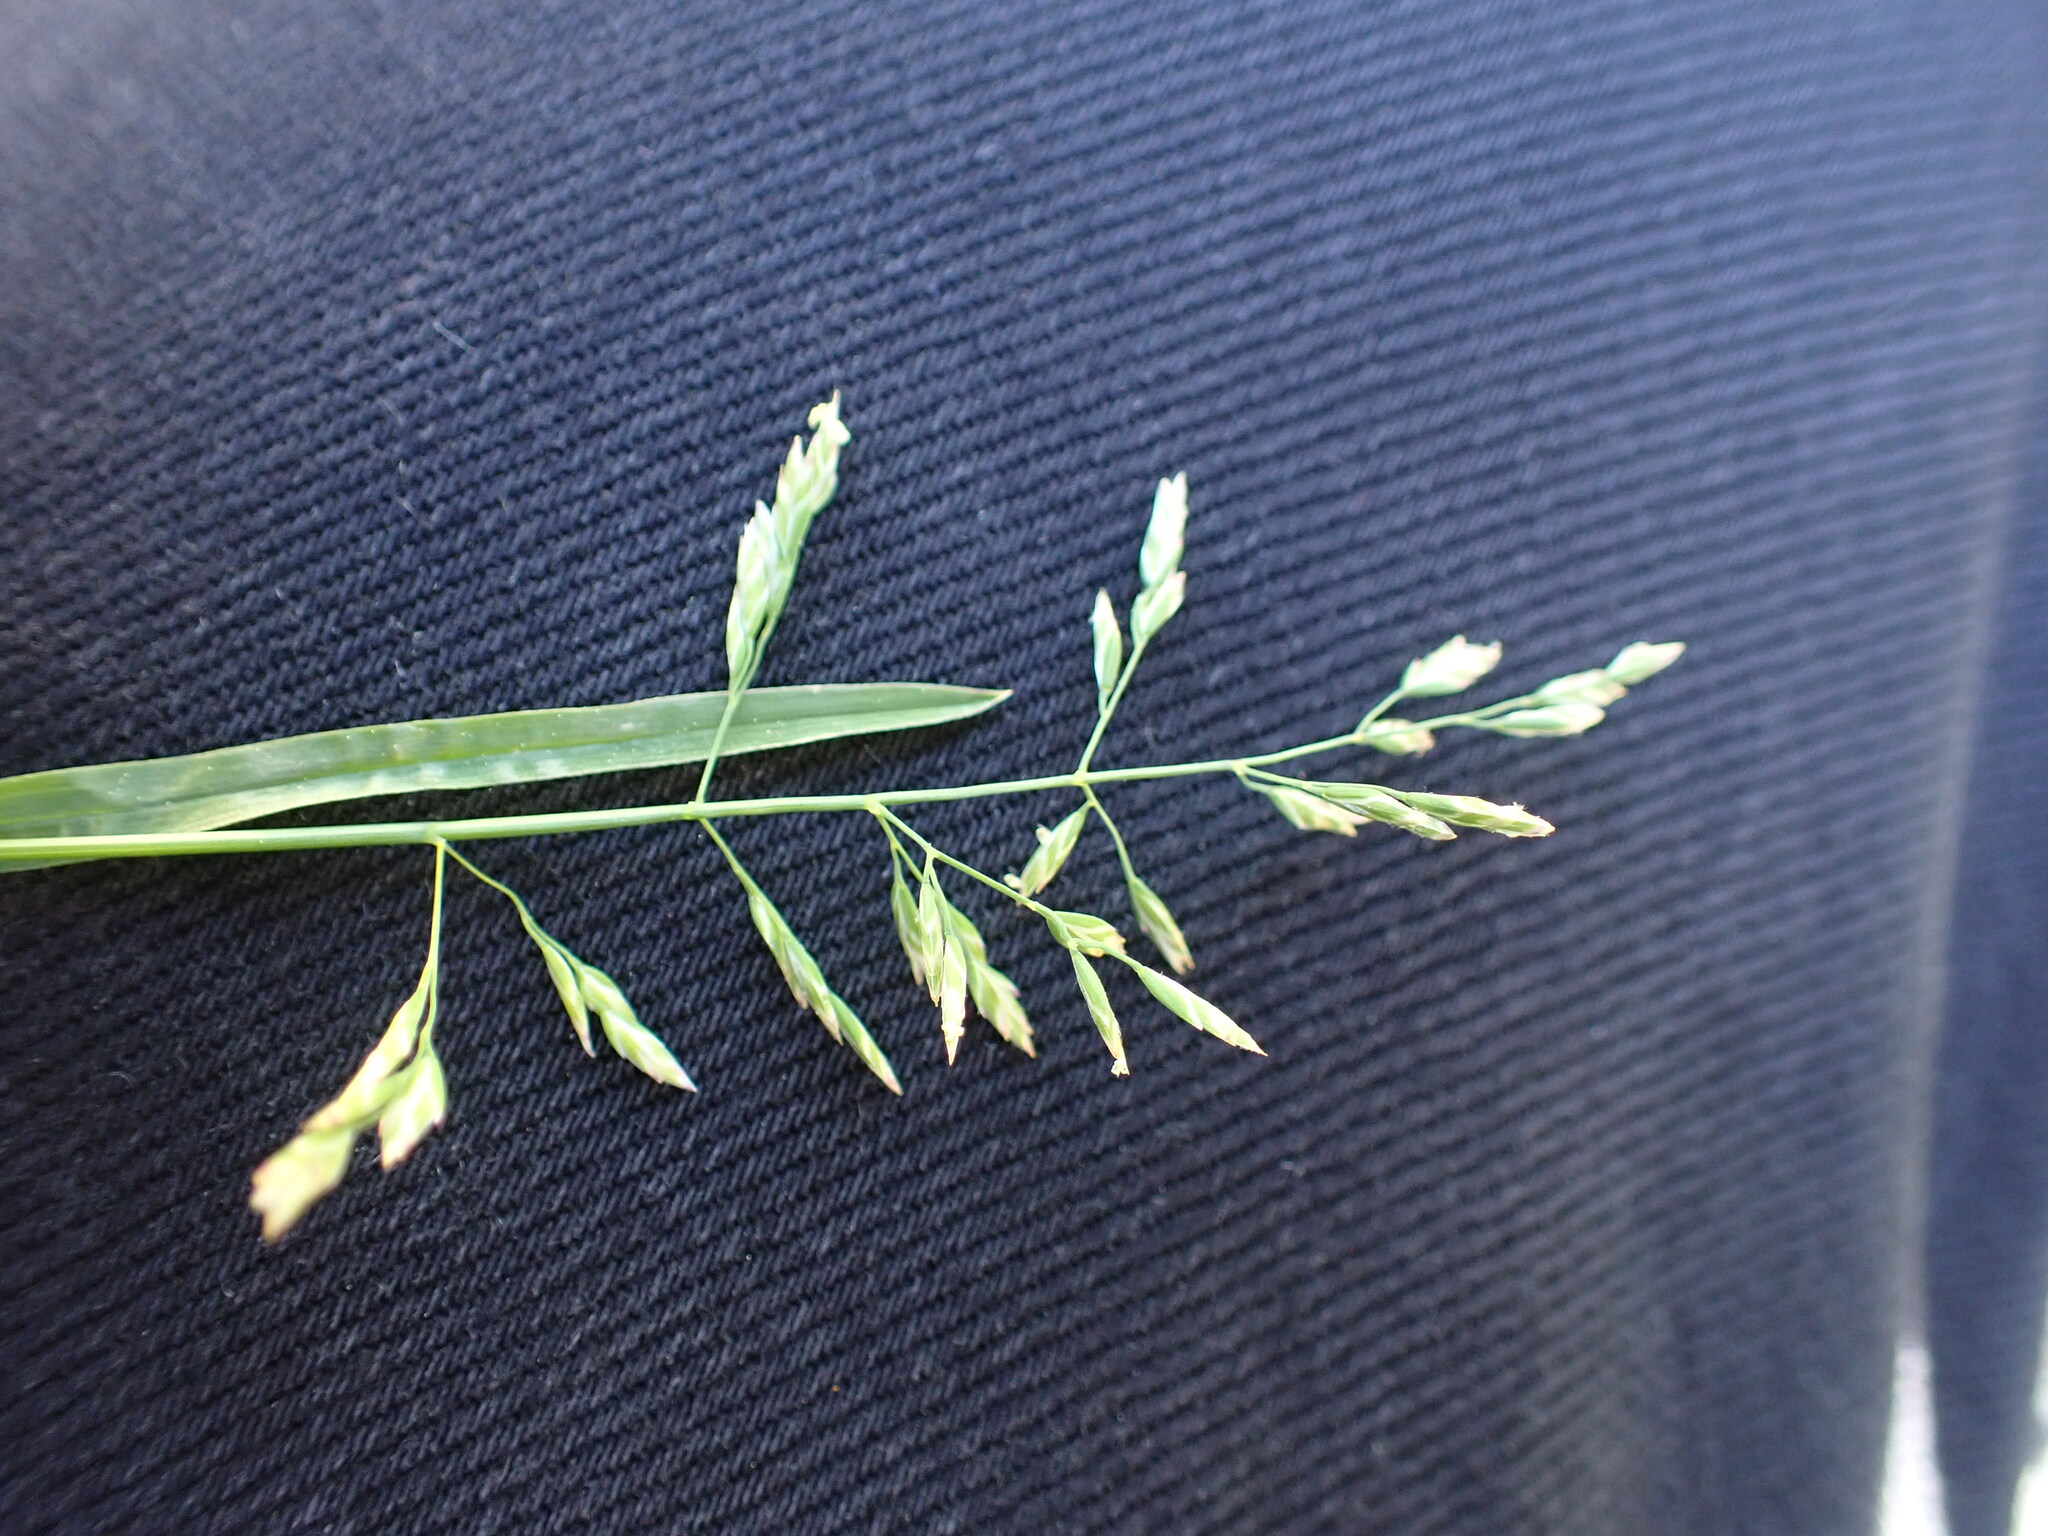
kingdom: Plantae
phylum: Tracheophyta
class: Liliopsida
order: Poales
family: Poaceae
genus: Poa
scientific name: Poa annua
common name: Annual bluegrass
